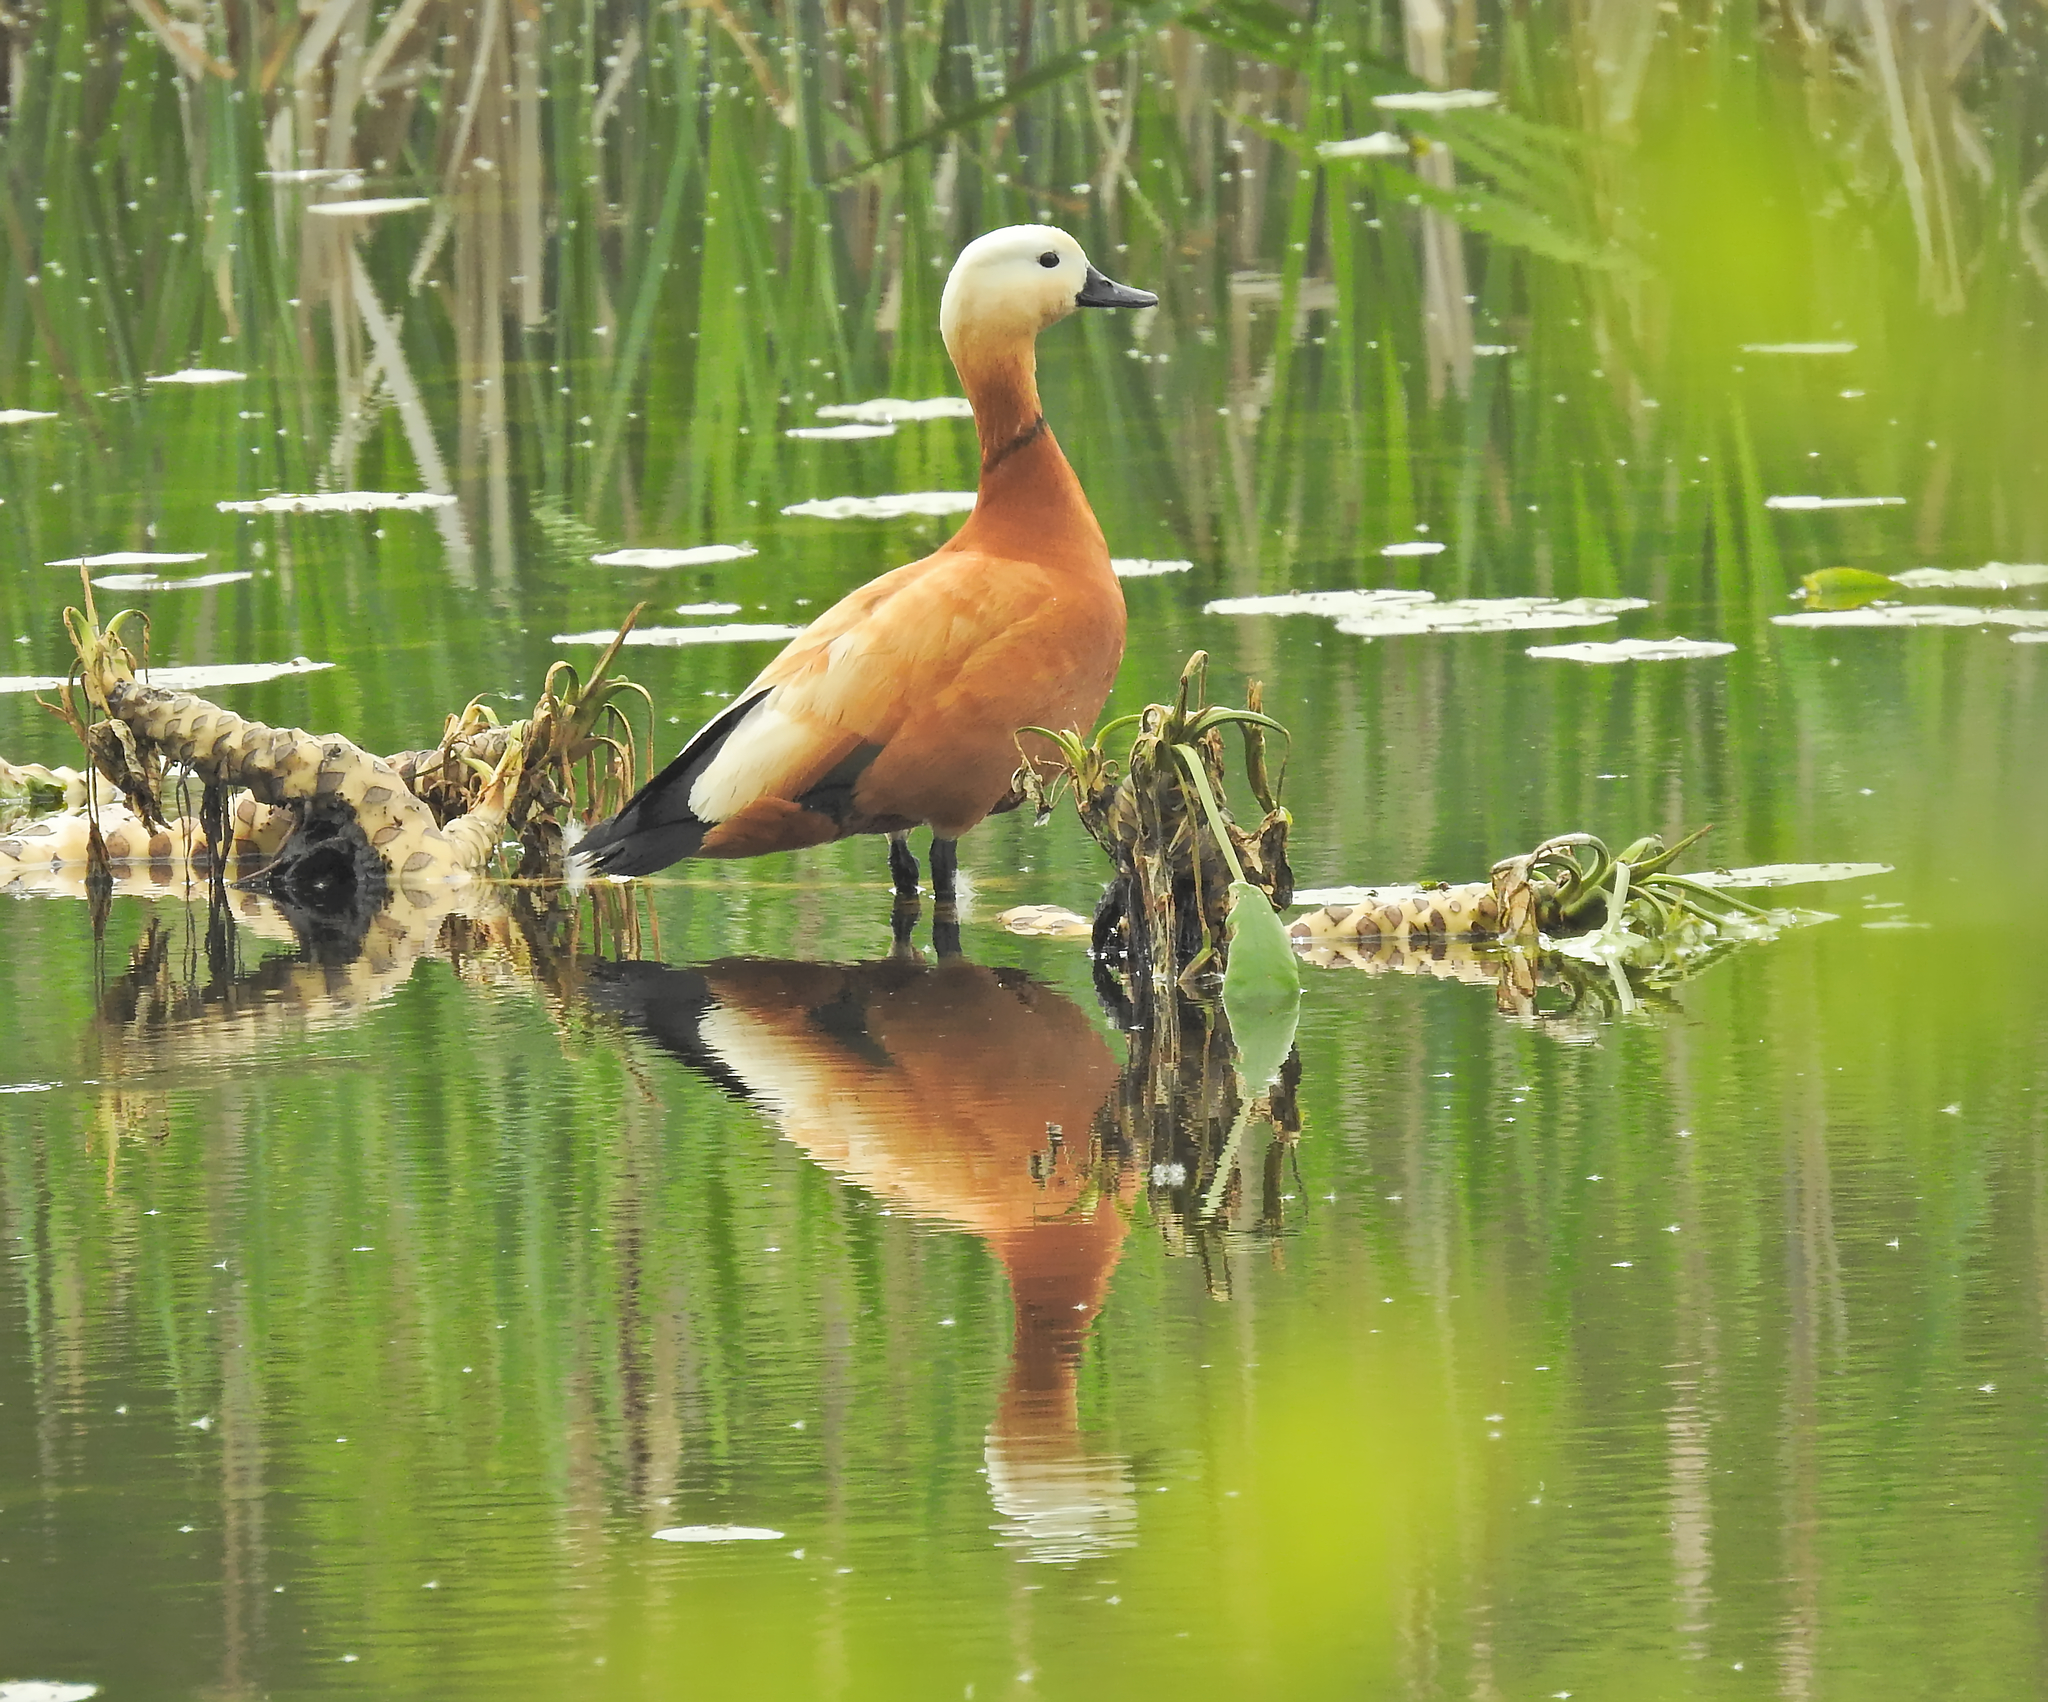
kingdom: Animalia
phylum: Chordata
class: Aves
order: Anseriformes
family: Anatidae
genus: Tadorna
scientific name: Tadorna ferruginea
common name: Ruddy shelduck
